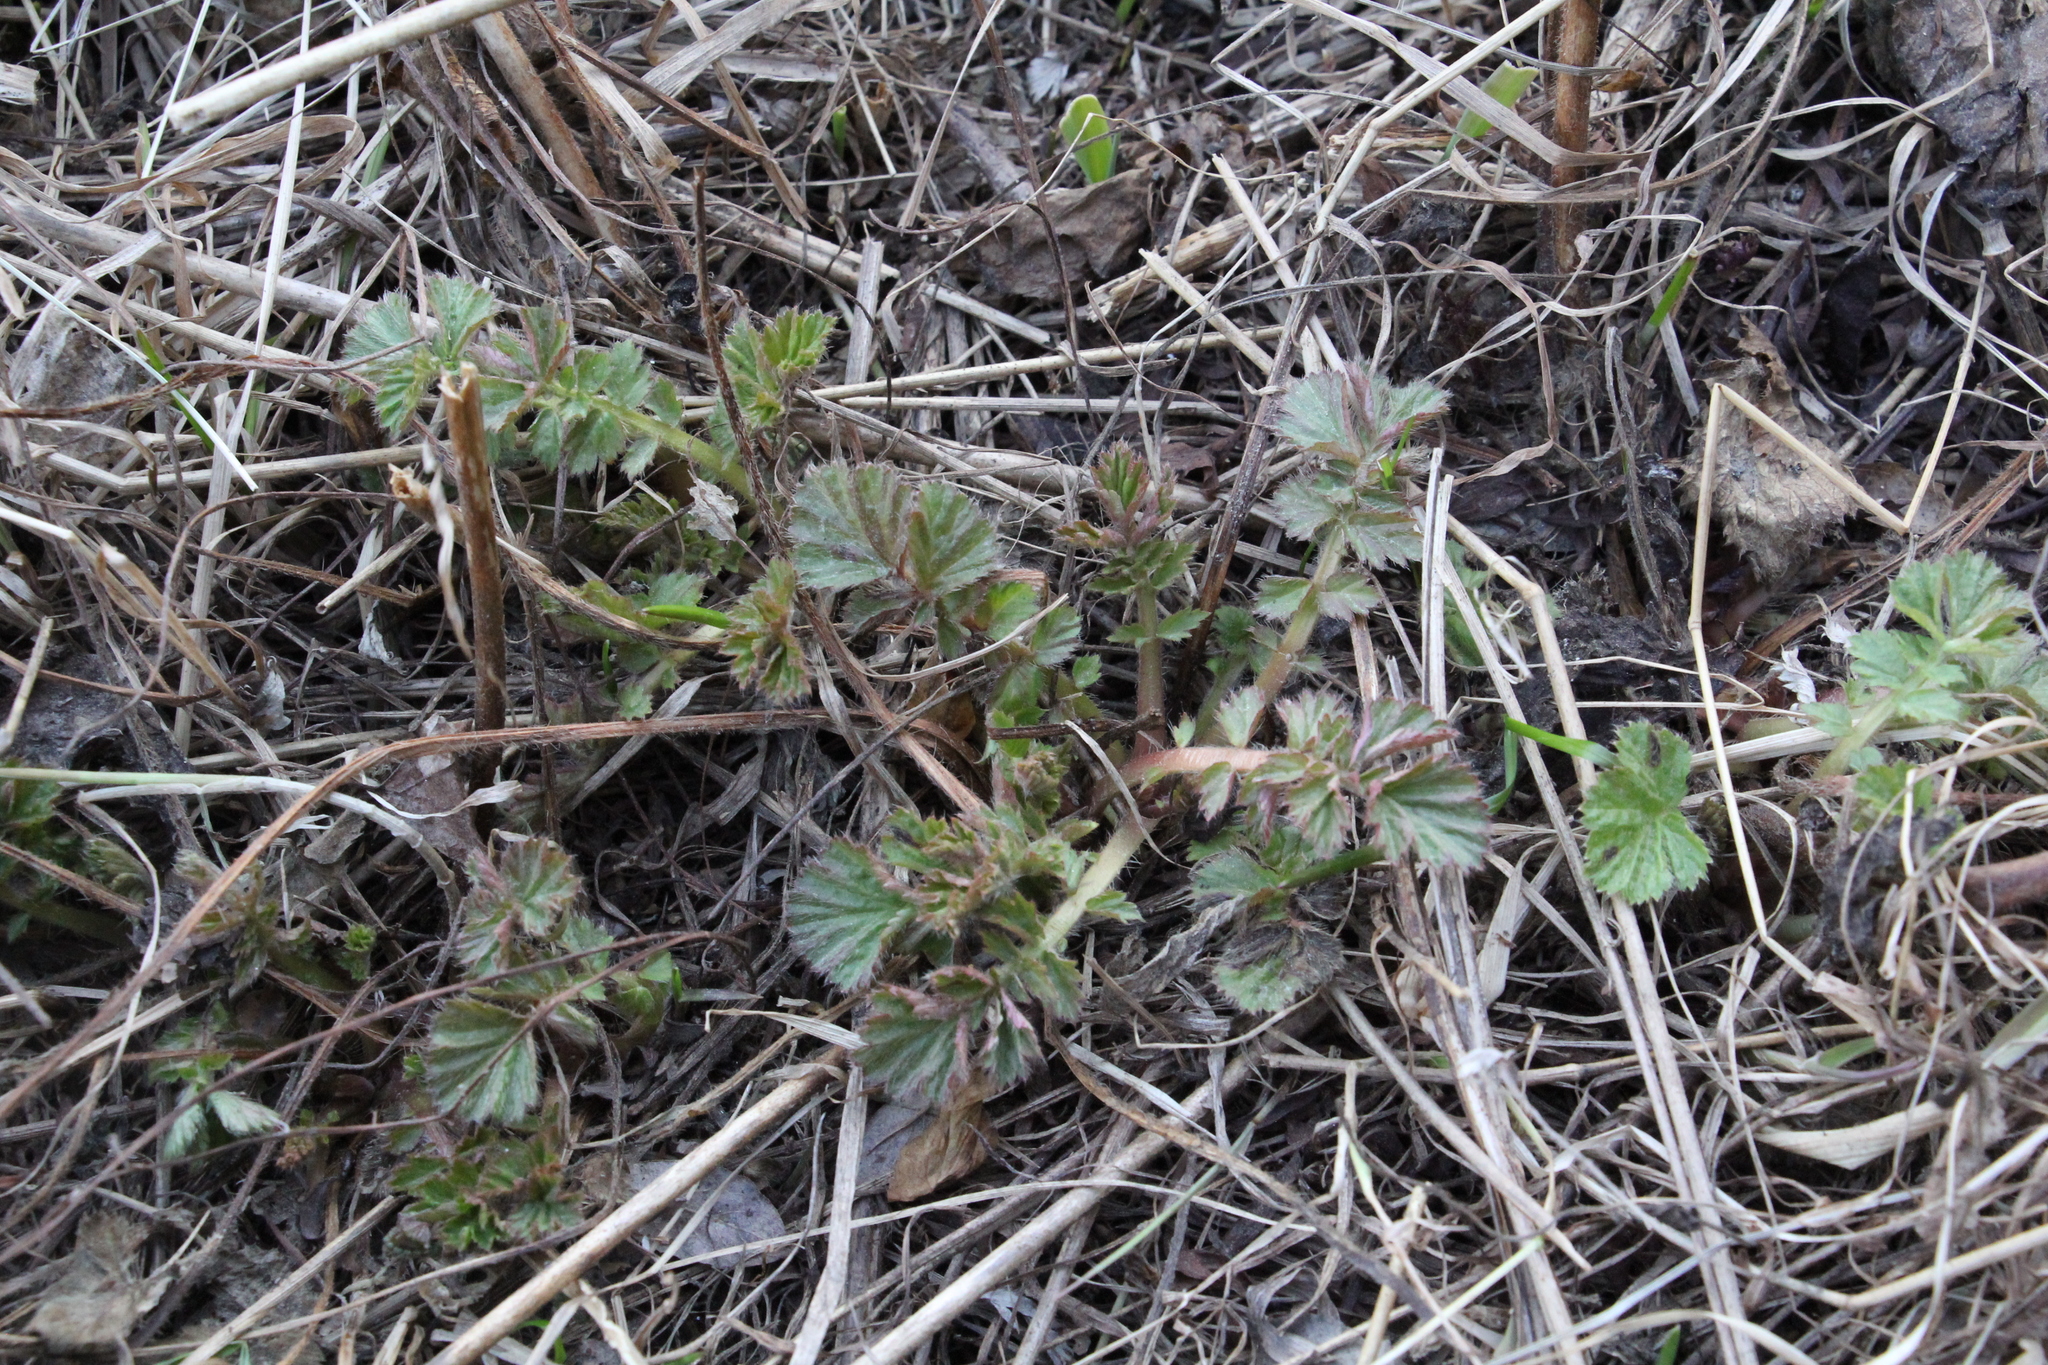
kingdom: Plantae
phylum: Tracheophyta
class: Magnoliopsida
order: Rosales
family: Rosaceae
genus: Geum
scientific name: Geum aleppicum
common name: Yellow avens
